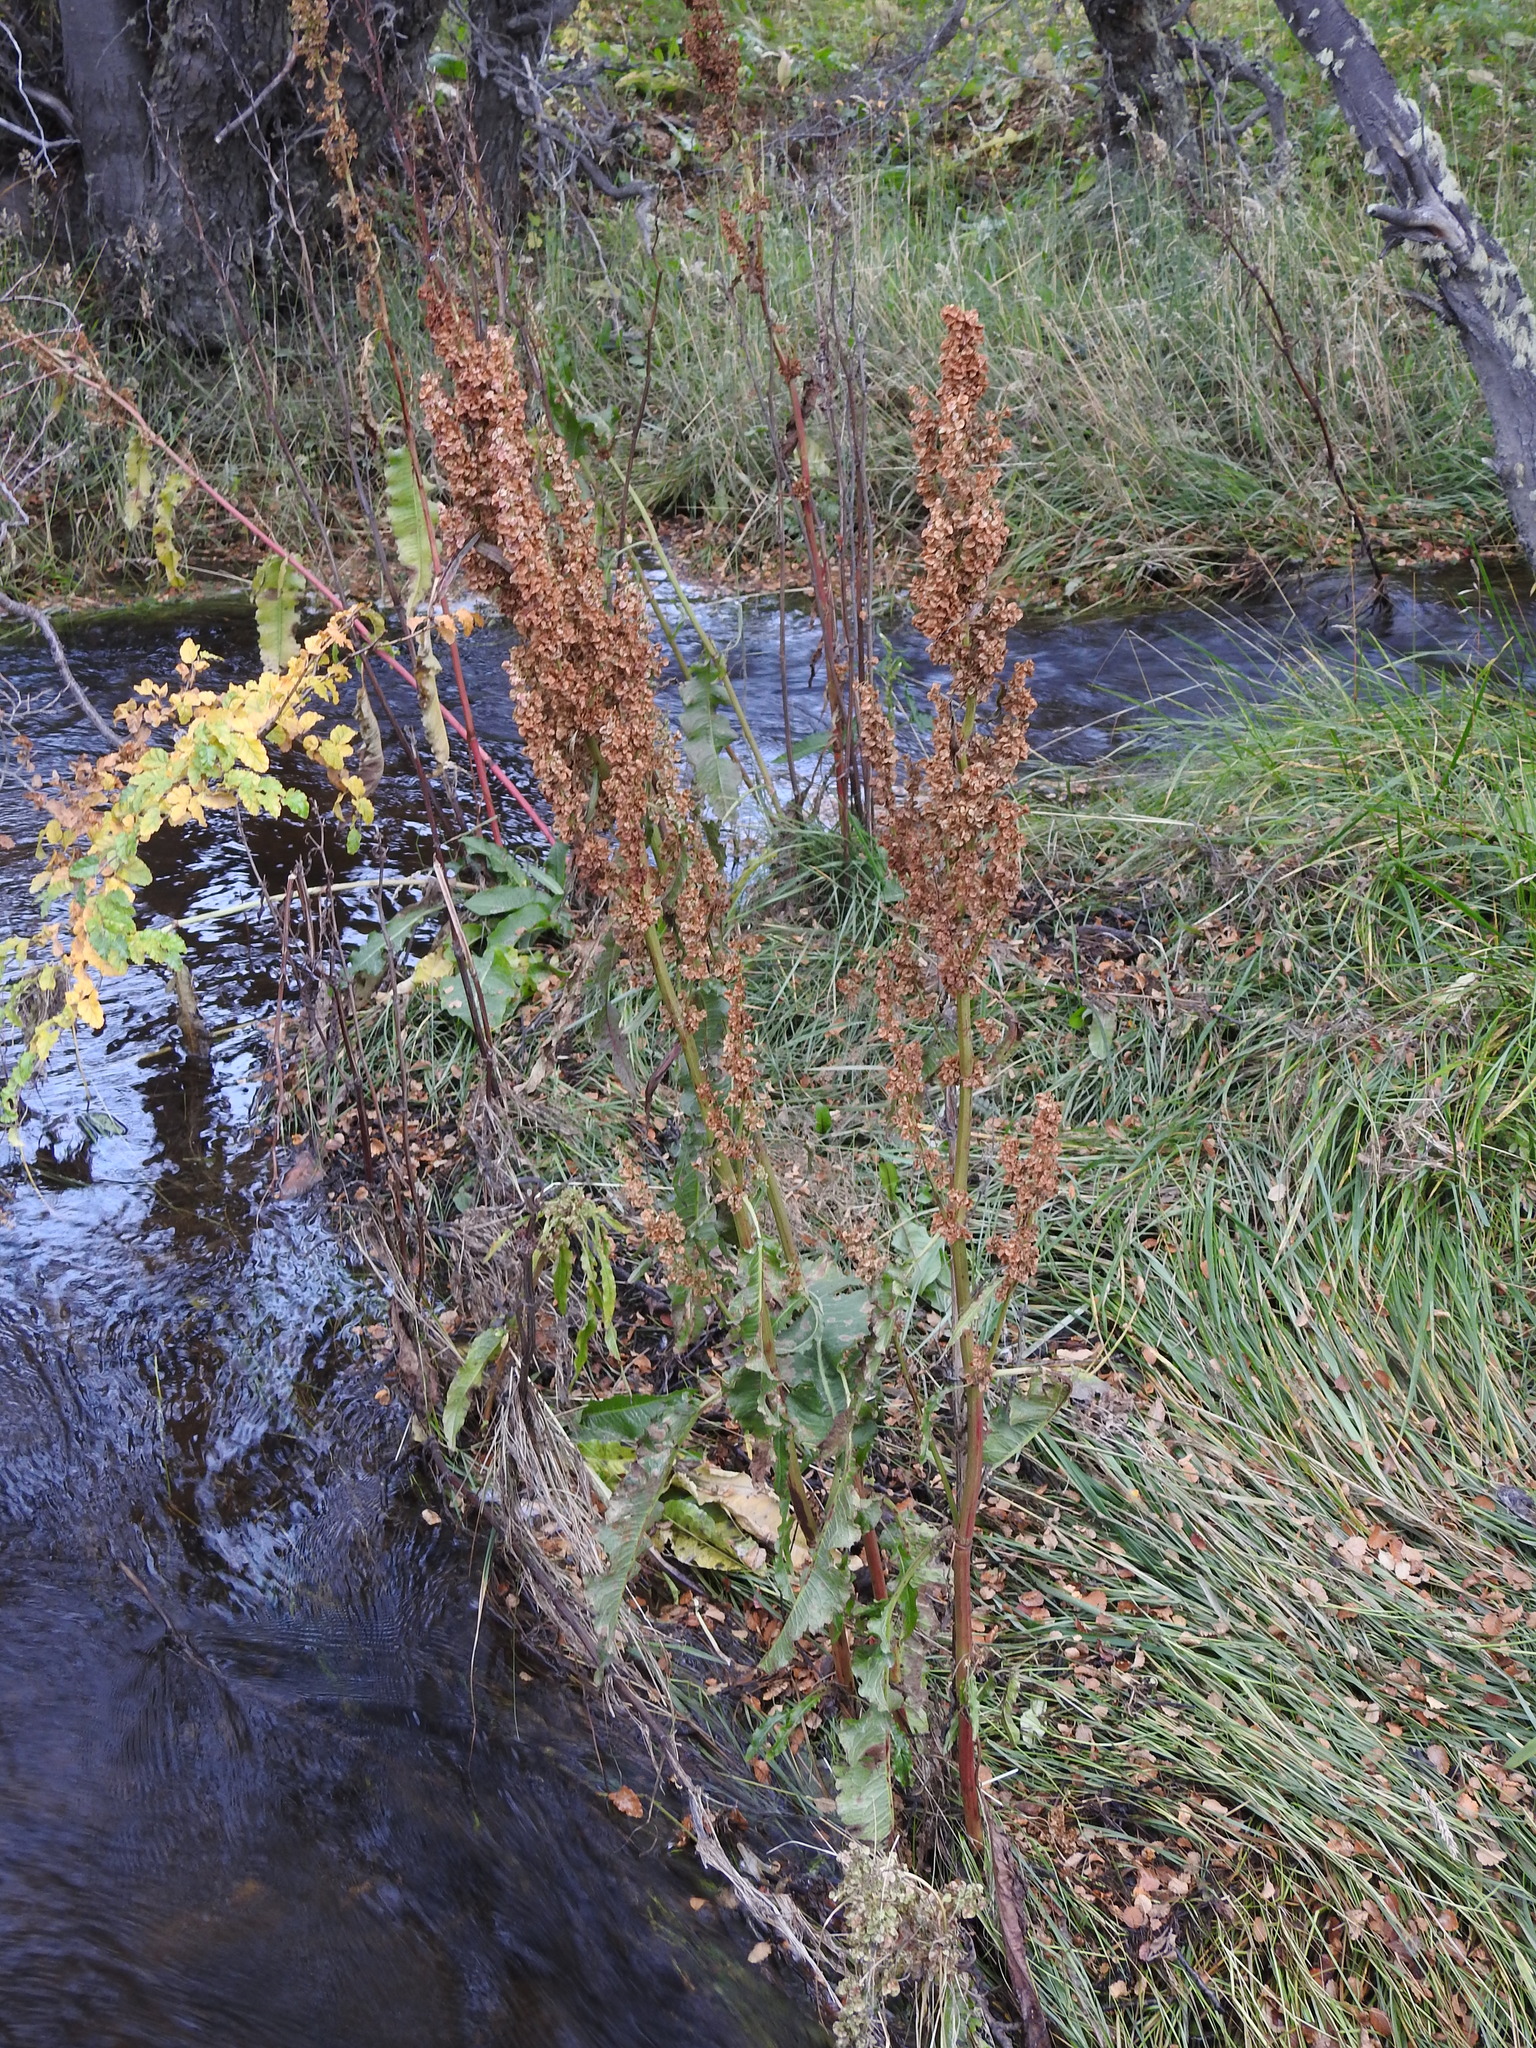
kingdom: Plantae
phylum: Tracheophyta
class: Magnoliopsida
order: Caryophyllales
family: Polygonaceae
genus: Rumex
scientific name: Rumex crispus
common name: Curled dock
